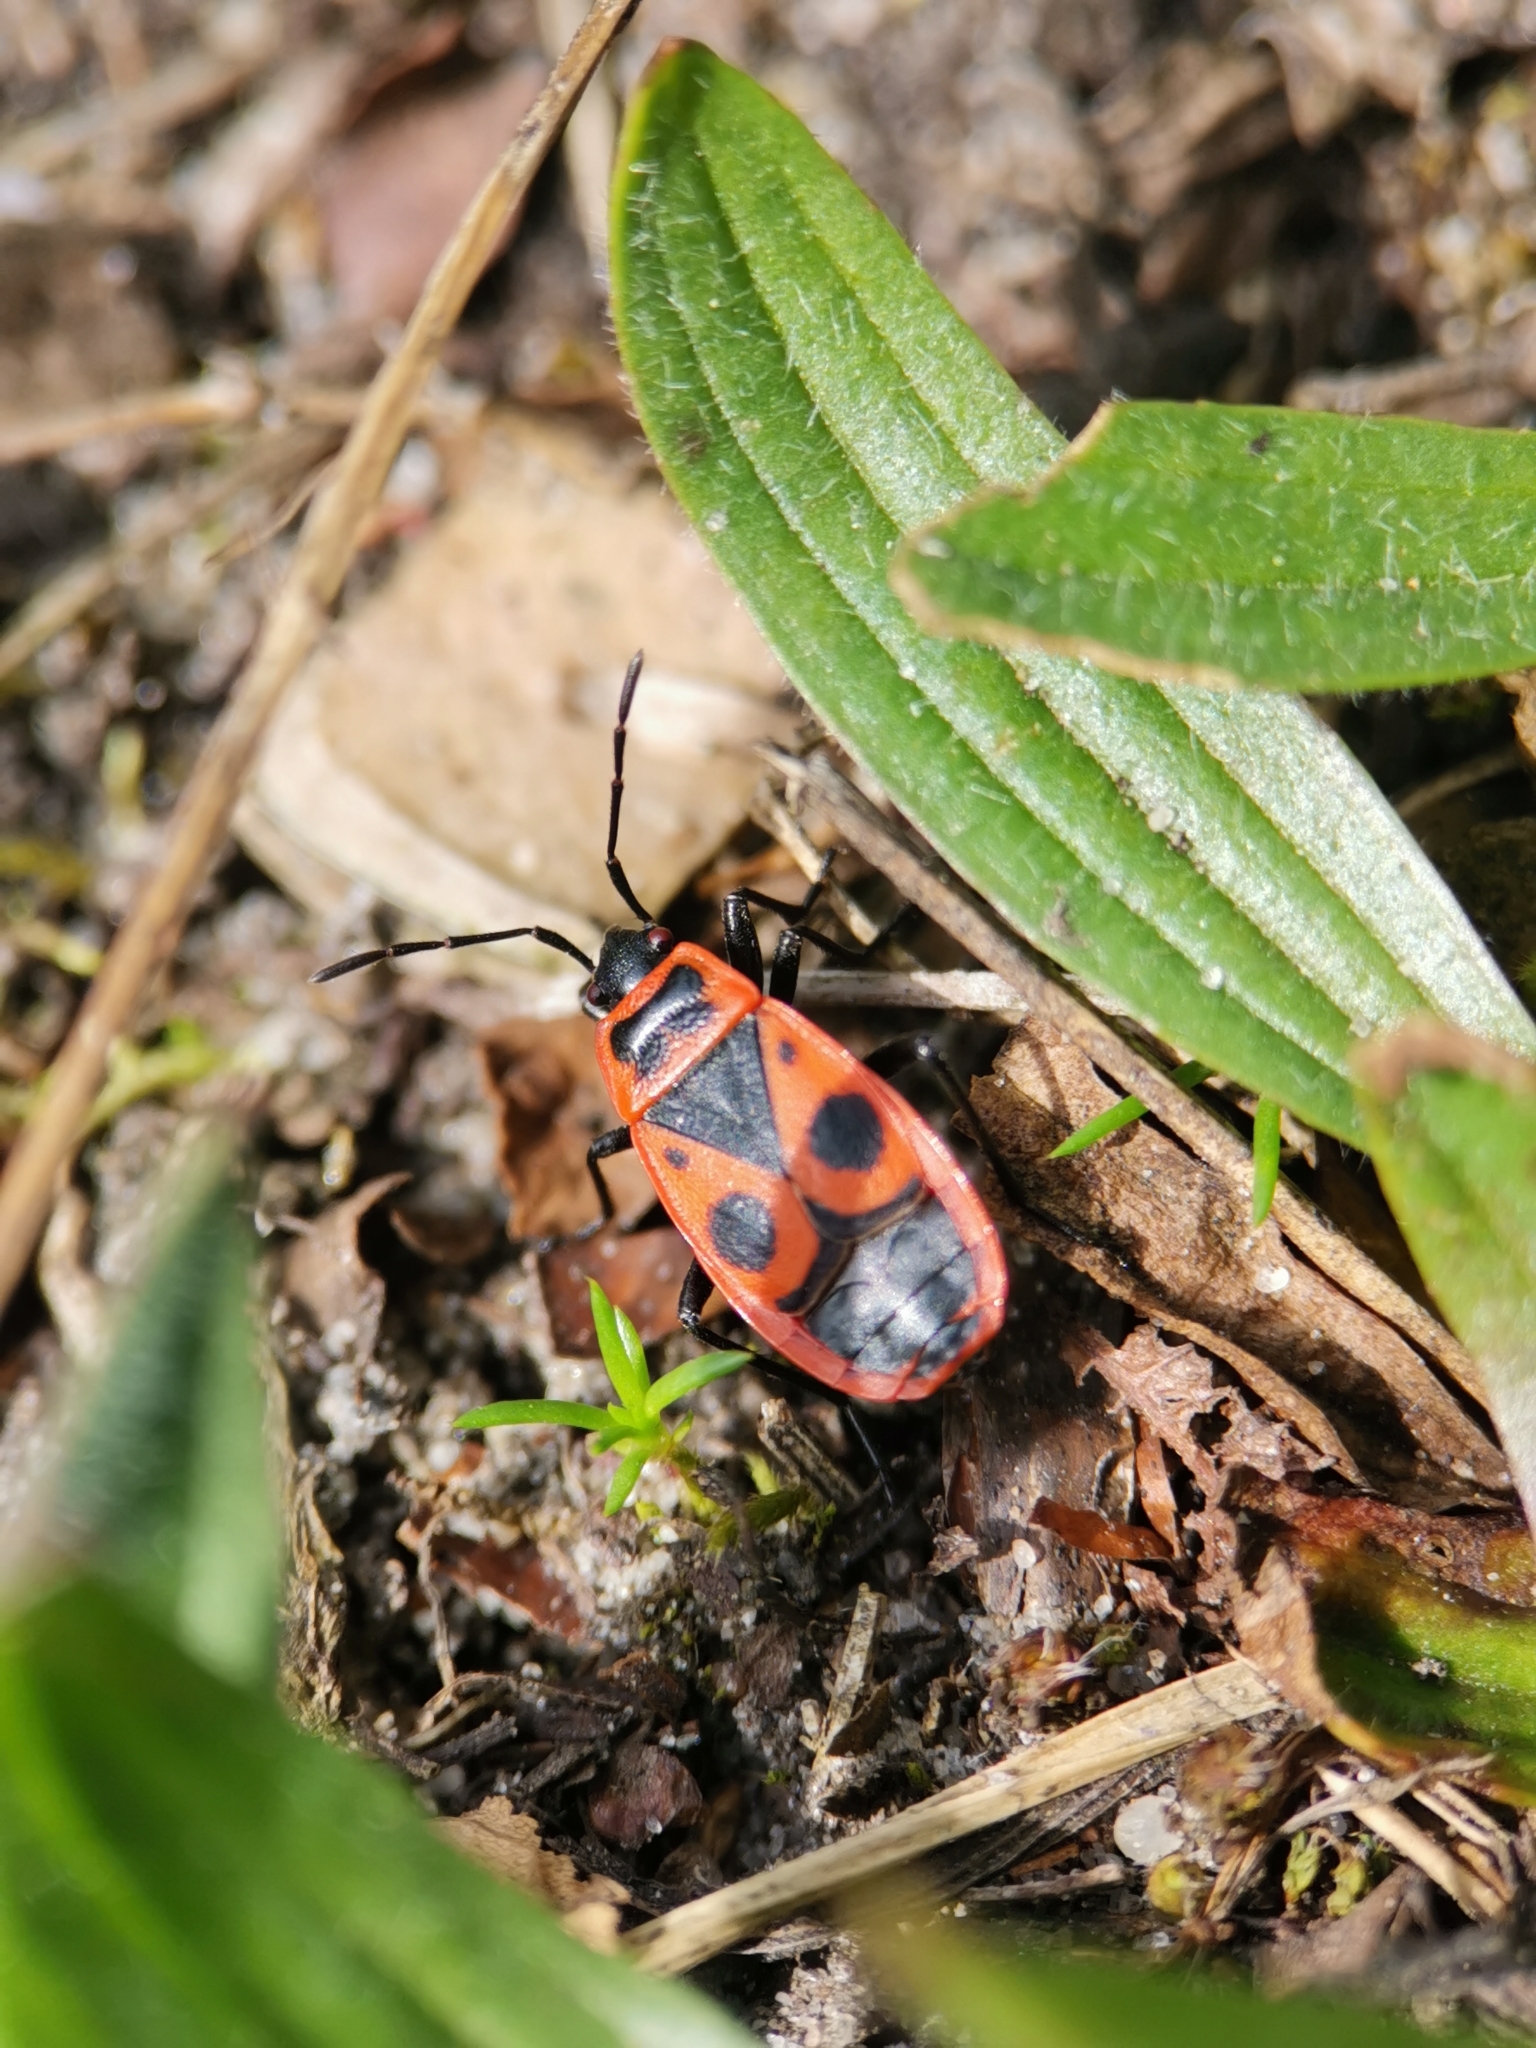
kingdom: Animalia
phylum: Arthropoda
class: Insecta
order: Hemiptera
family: Pyrrhocoridae
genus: Pyrrhocoris
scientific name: Pyrrhocoris apterus
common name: Firebug
